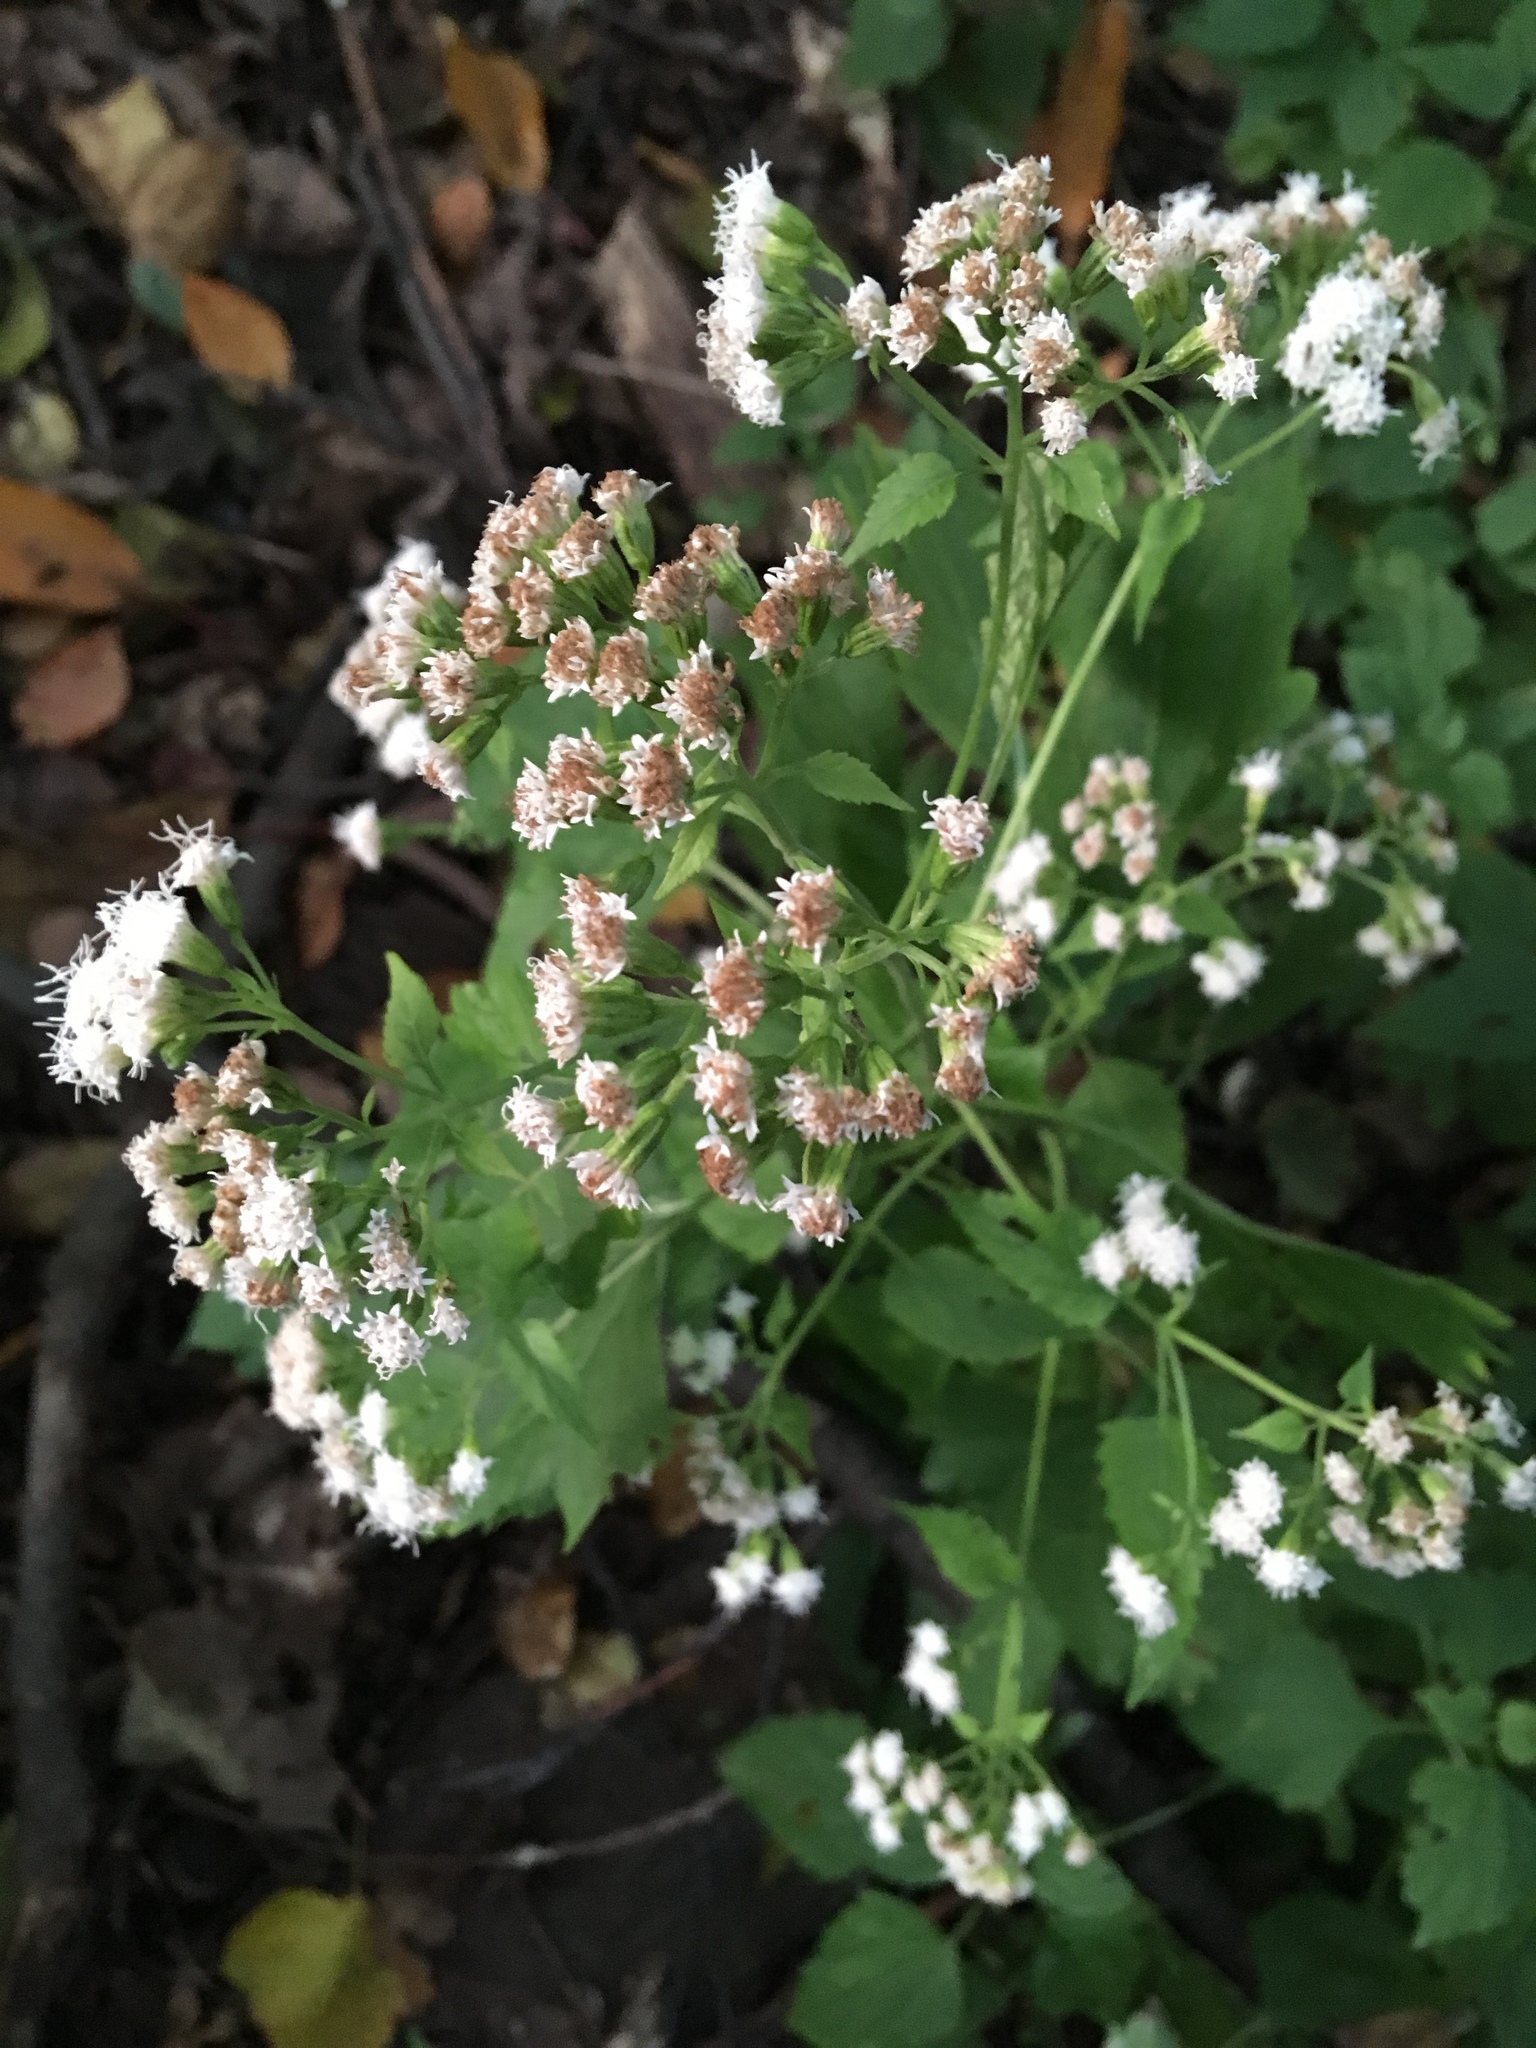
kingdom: Plantae
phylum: Tracheophyta
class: Magnoliopsida
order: Asterales
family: Asteraceae
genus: Ageratina
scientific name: Ageratina altissima
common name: White snakeroot
